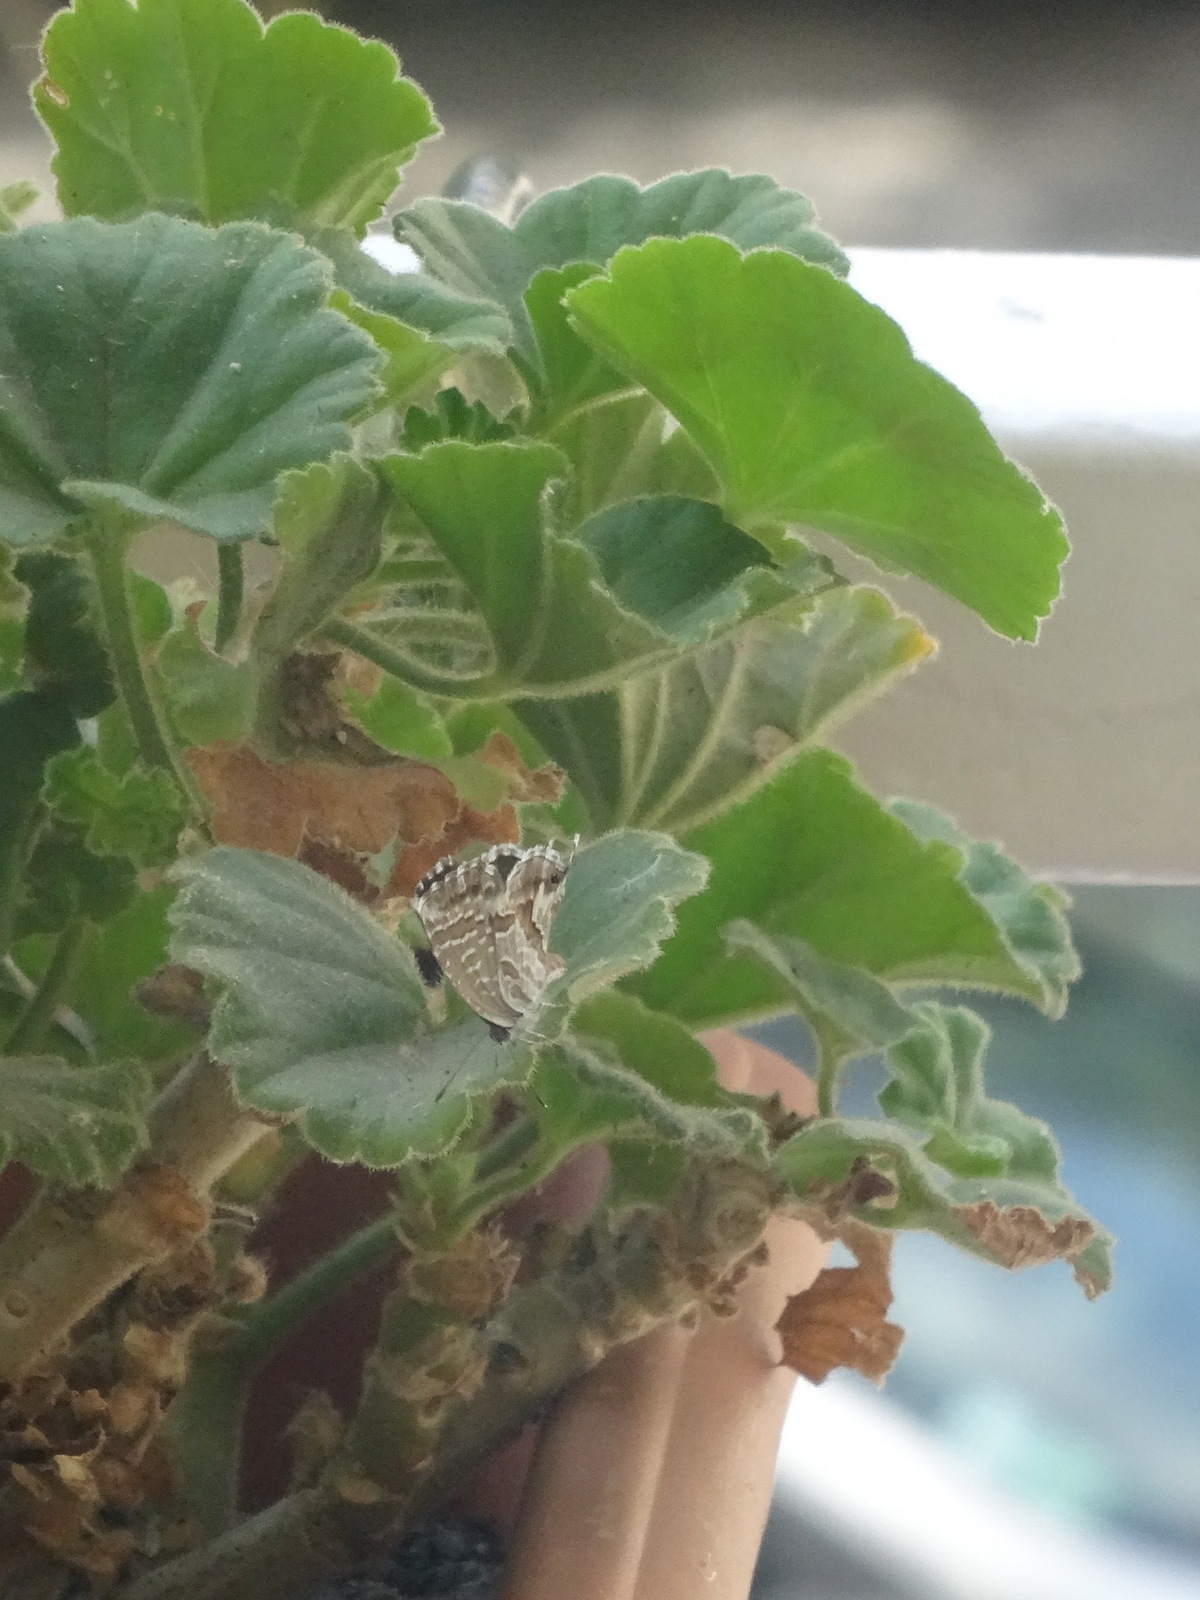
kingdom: Animalia
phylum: Arthropoda
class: Insecta
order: Lepidoptera
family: Lycaenidae
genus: Cacyreus
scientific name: Cacyreus marshalli
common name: Geranium bronze
